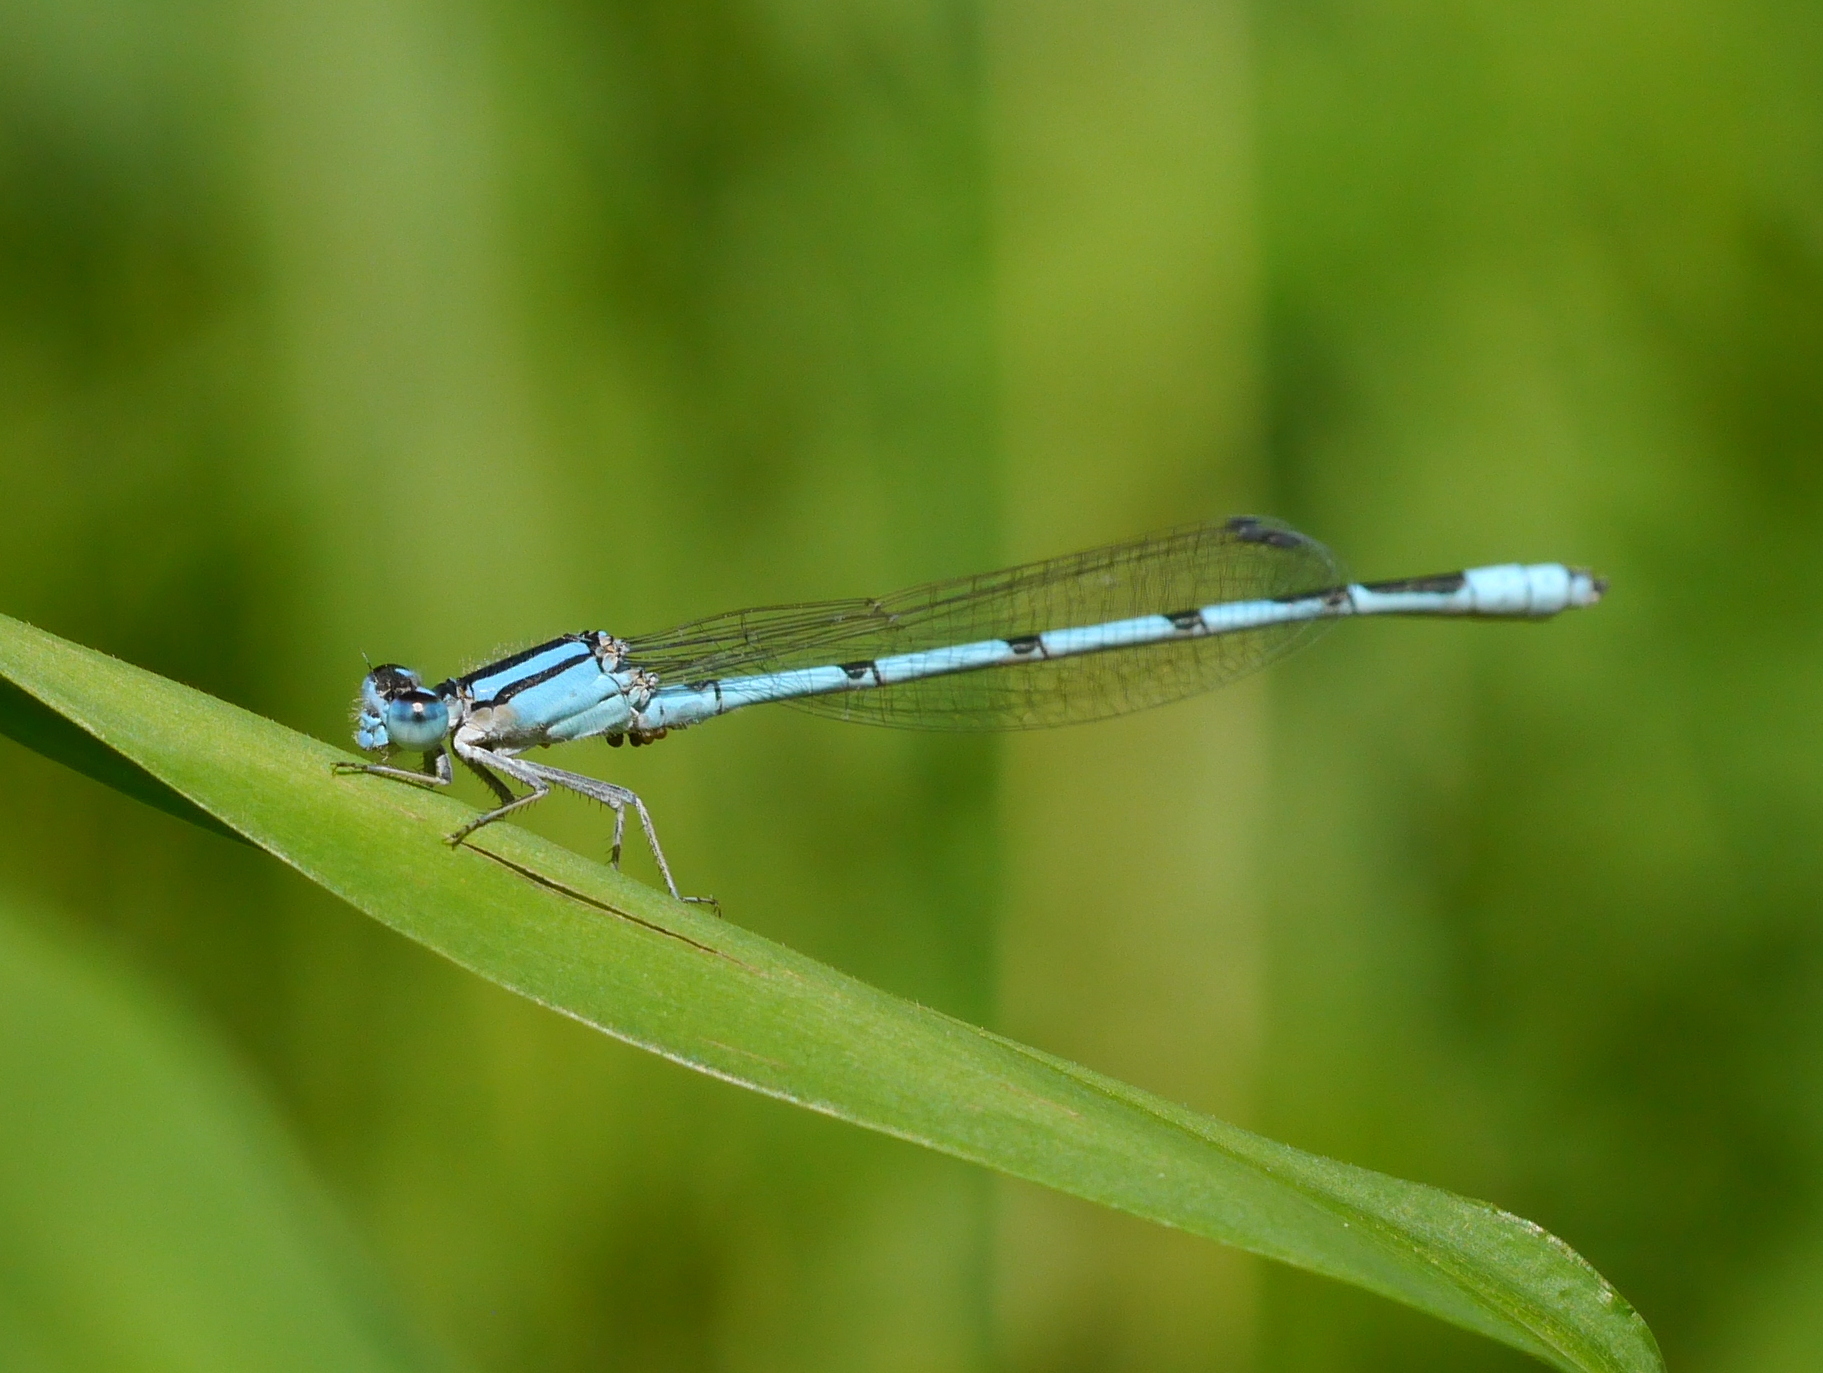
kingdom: Animalia
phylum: Arthropoda
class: Insecta
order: Odonata
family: Coenagrionidae
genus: Enallagma
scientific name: Enallagma civile
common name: Damselfly
